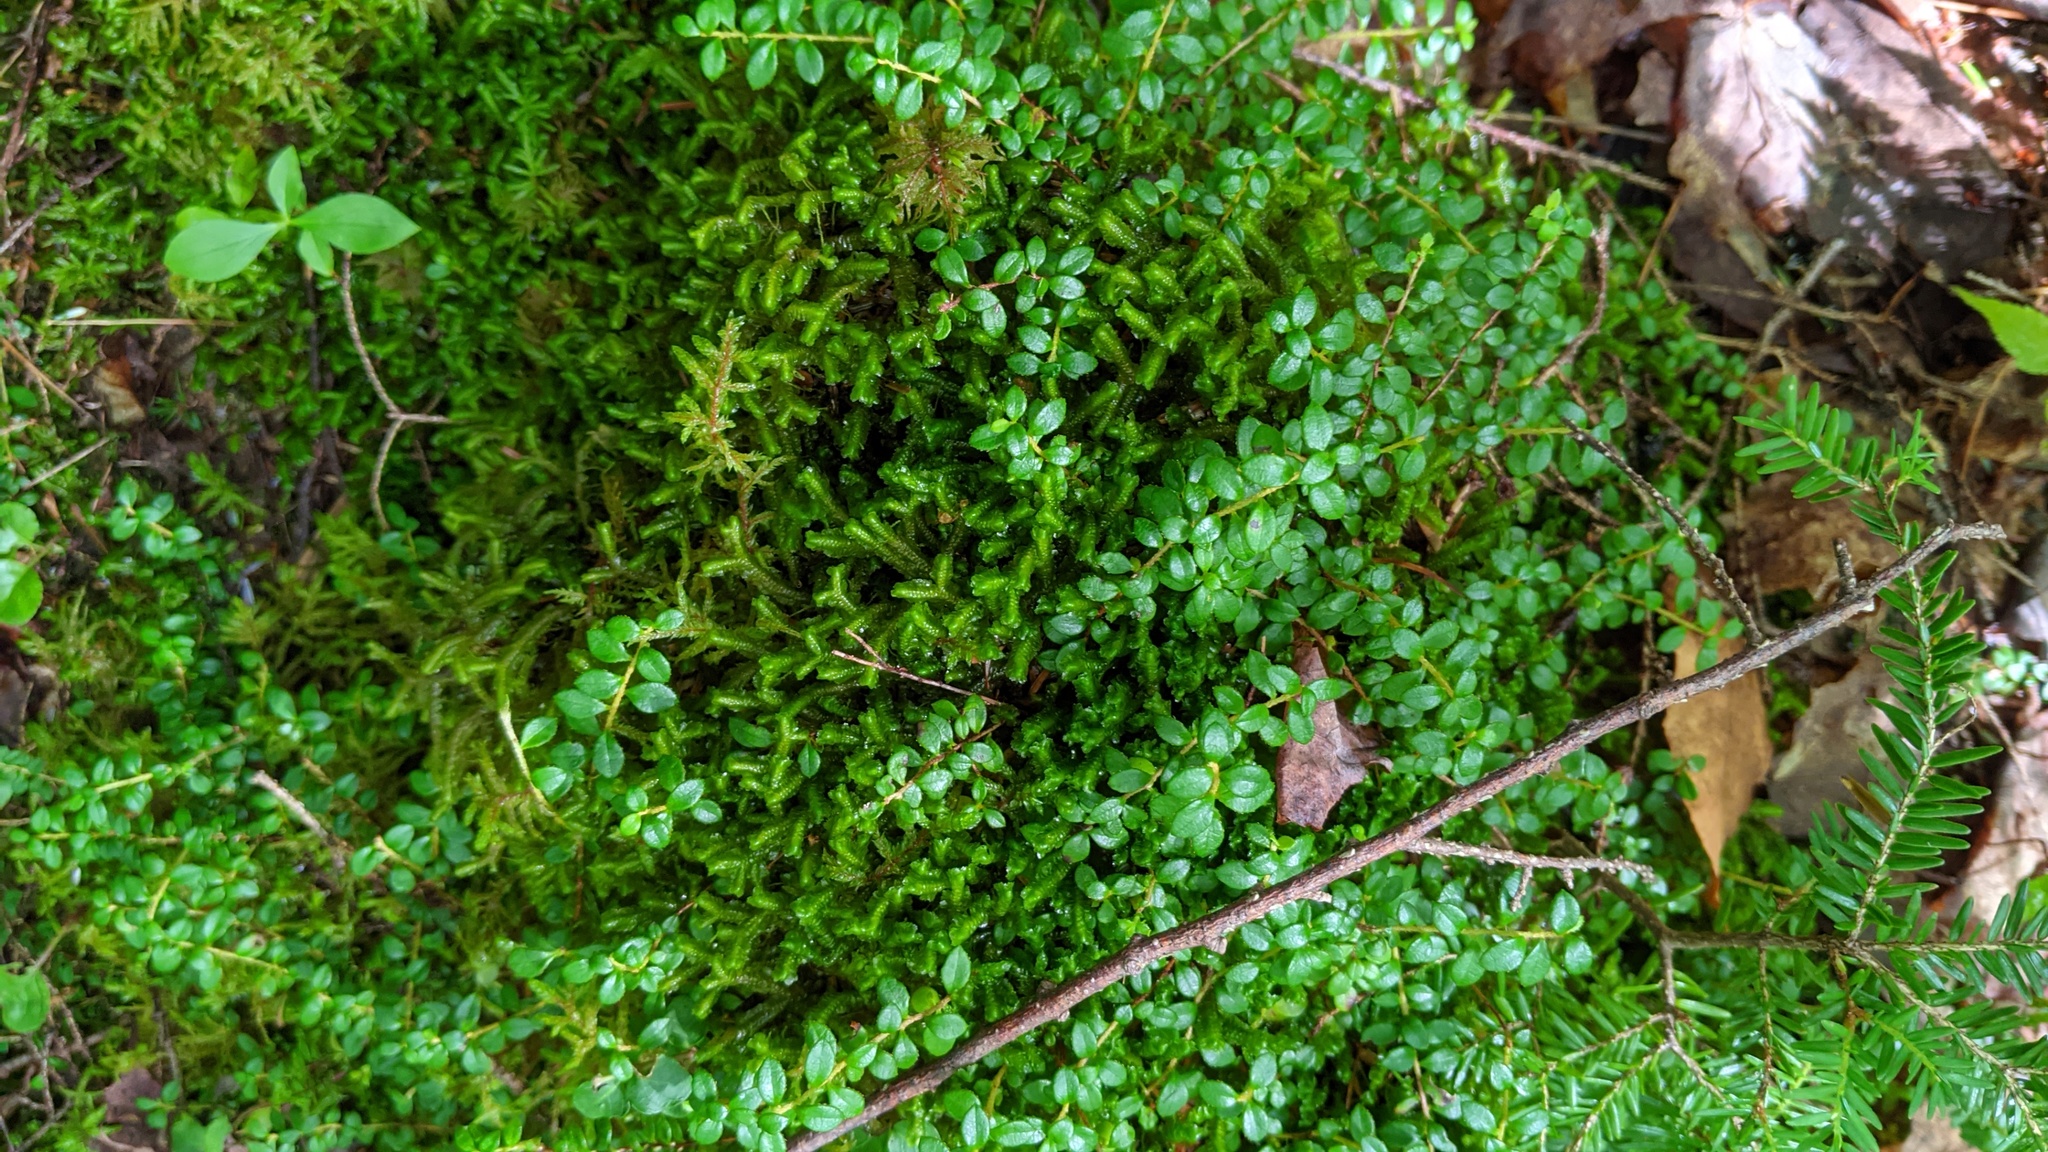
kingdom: Plantae
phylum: Tracheophyta
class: Magnoliopsida
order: Ericales
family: Ericaceae
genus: Gaultheria
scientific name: Gaultheria hispidula
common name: Cancer wintergreen
